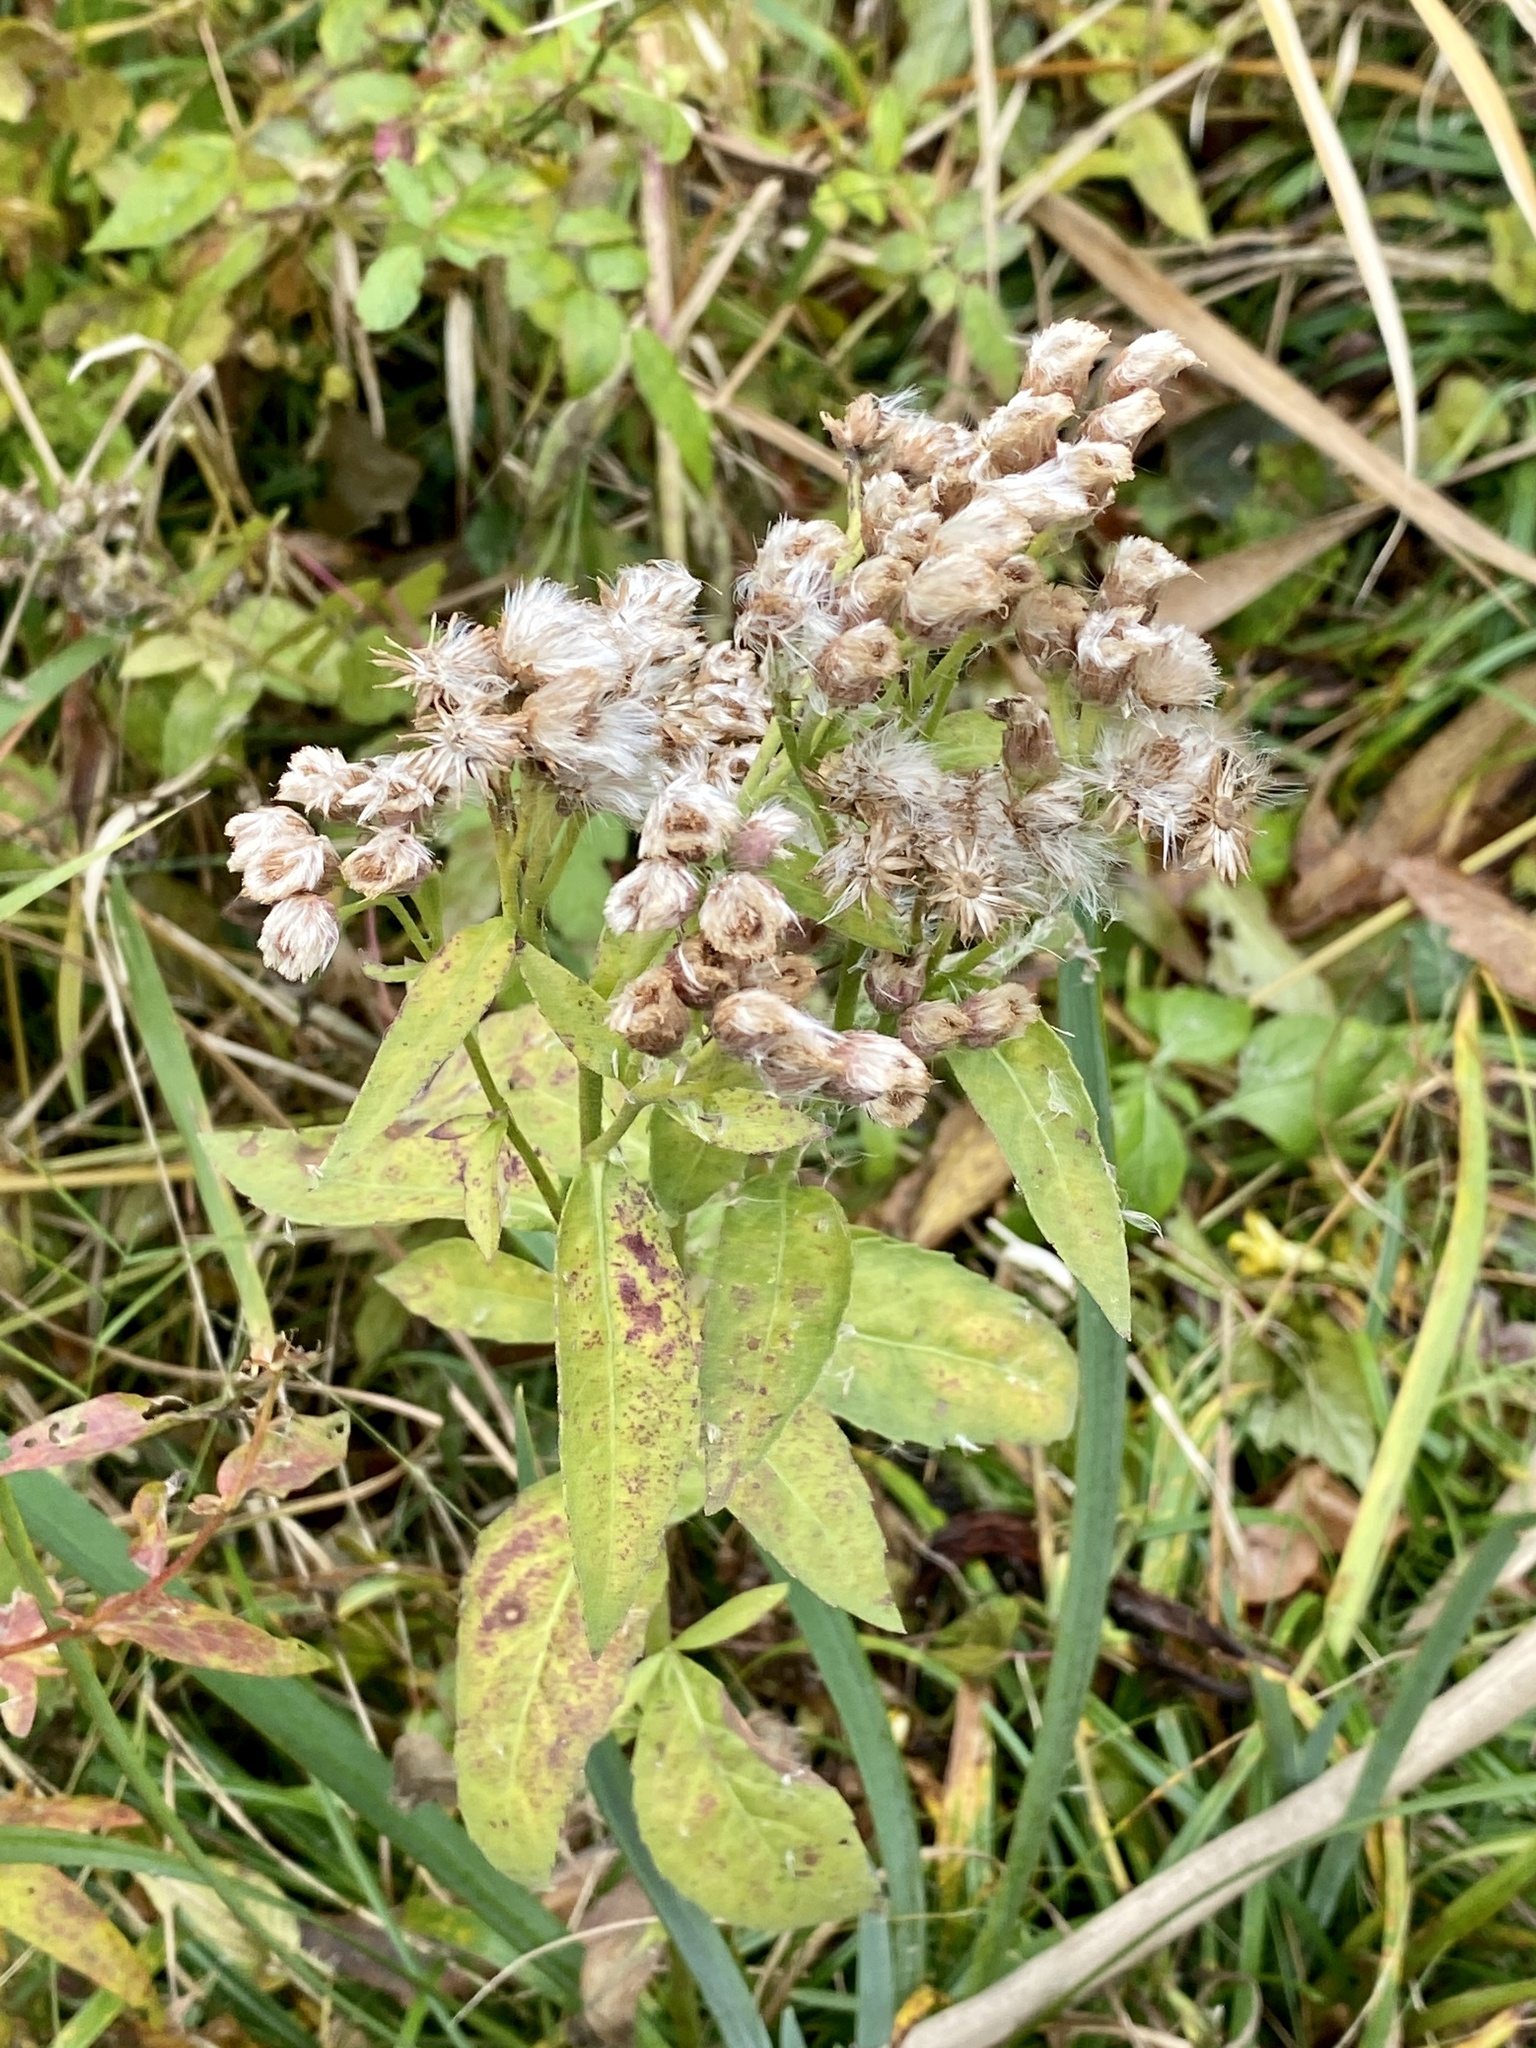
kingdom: Plantae
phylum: Tracheophyta
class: Magnoliopsida
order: Asterales
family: Asteraceae
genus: Pluchea
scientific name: Pluchea odorata
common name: Saltmarsh fleabane
